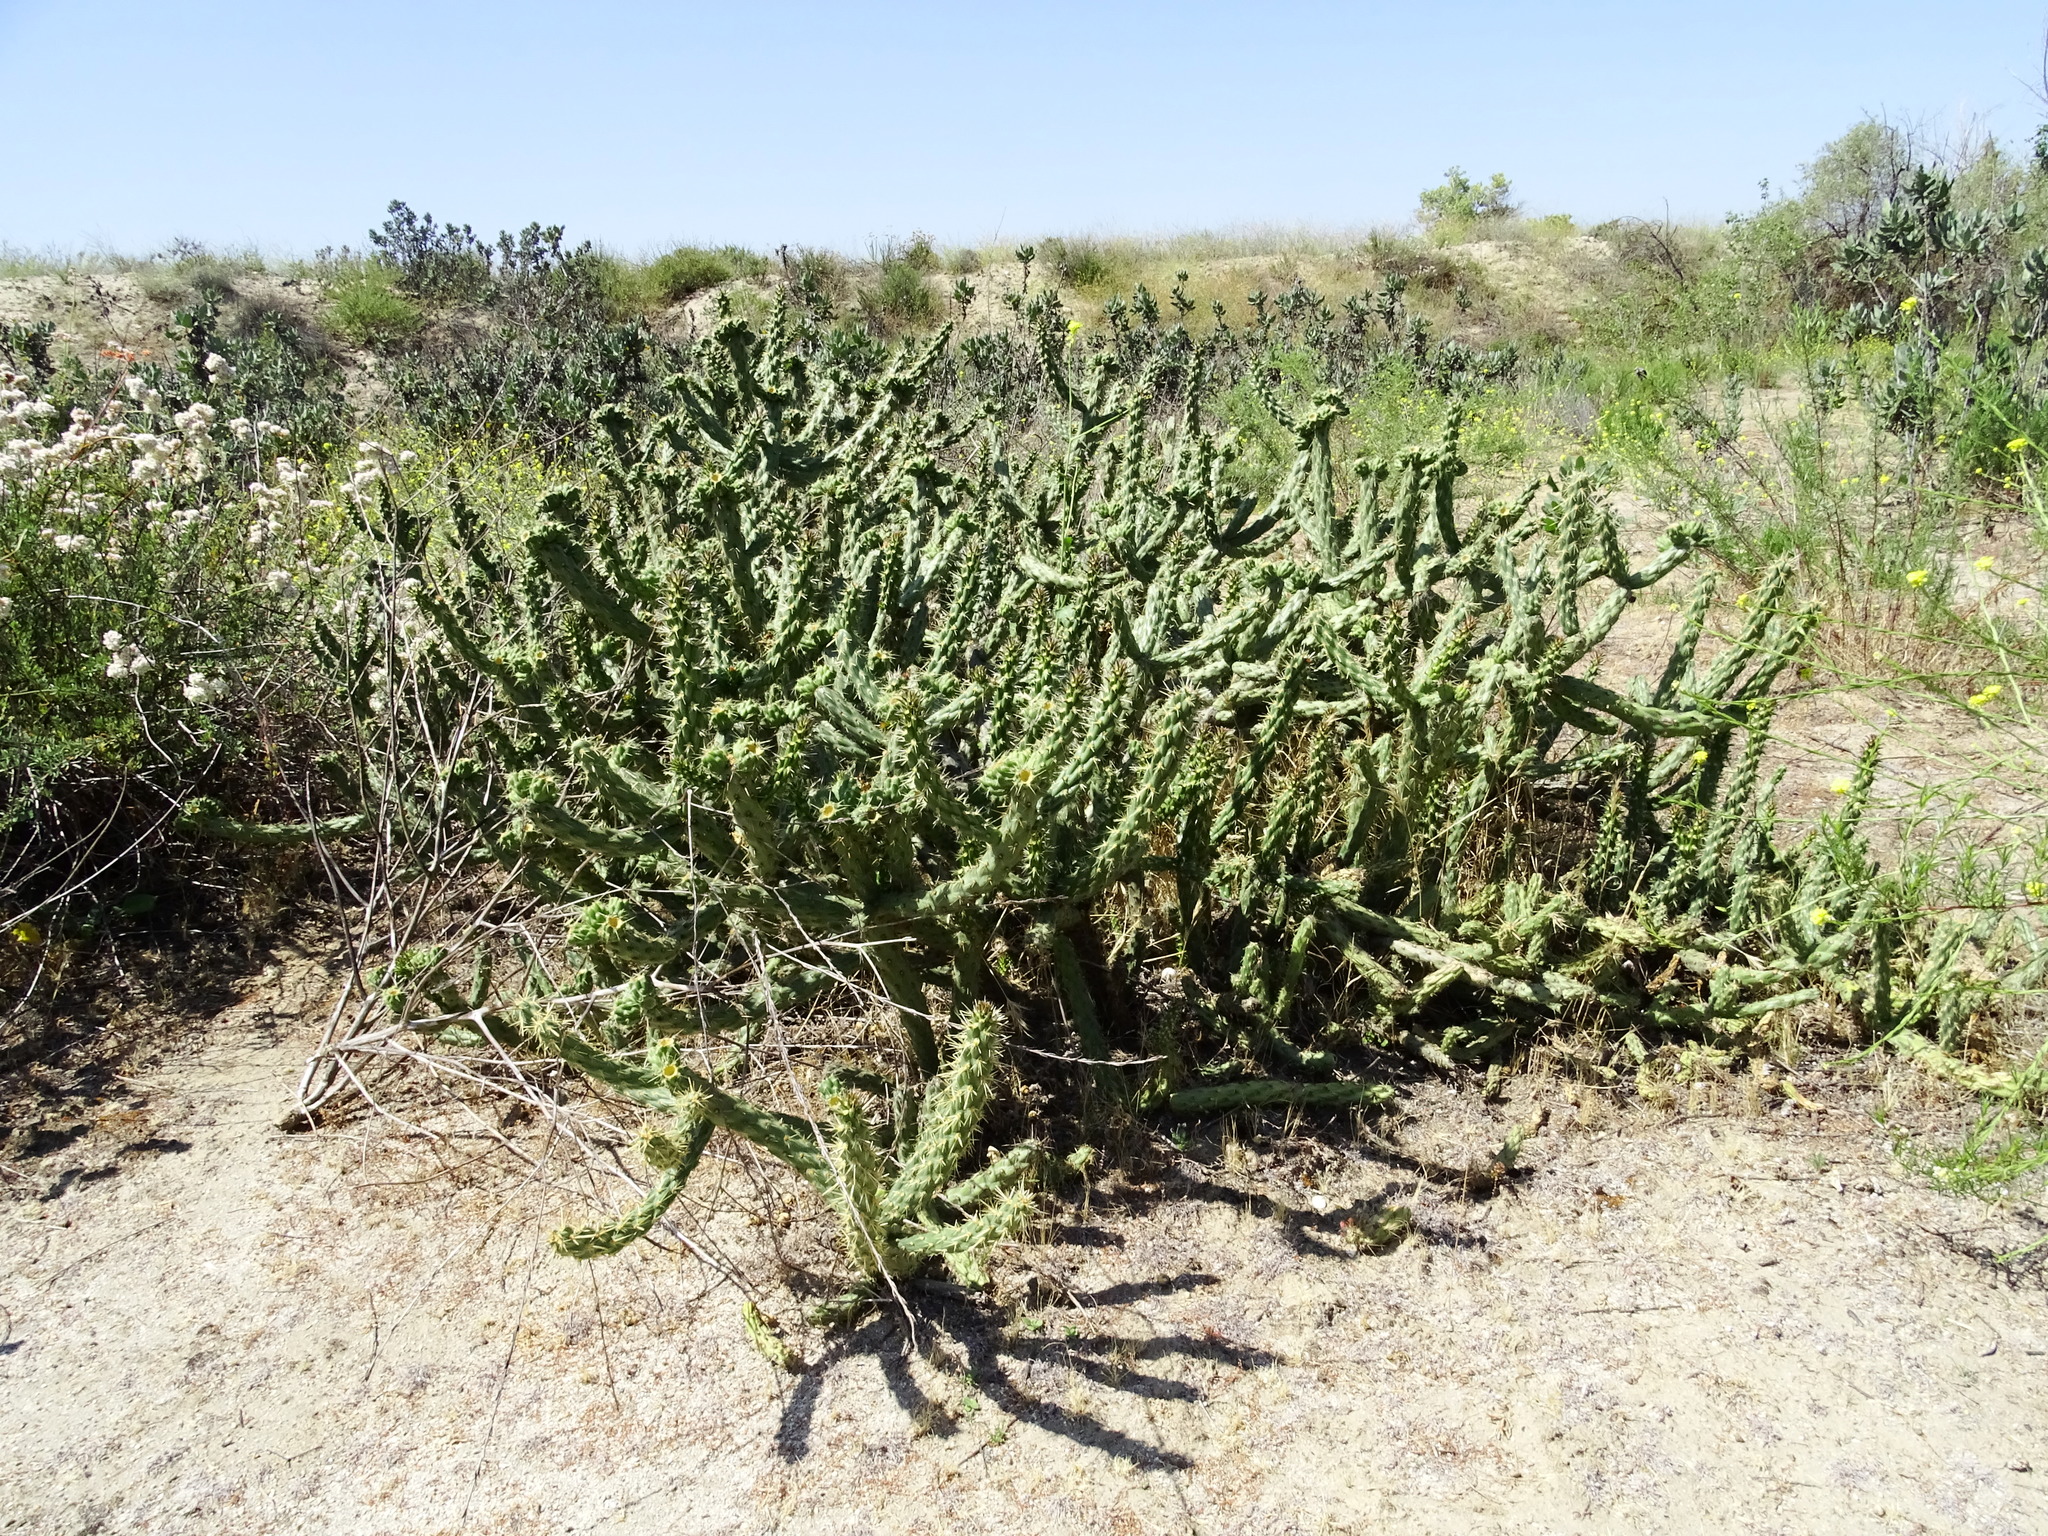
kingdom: Plantae
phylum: Tracheophyta
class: Magnoliopsida
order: Caryophyllales
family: Cactaceae
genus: Cylindropuntia
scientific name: Cylindropuntia bernardina
